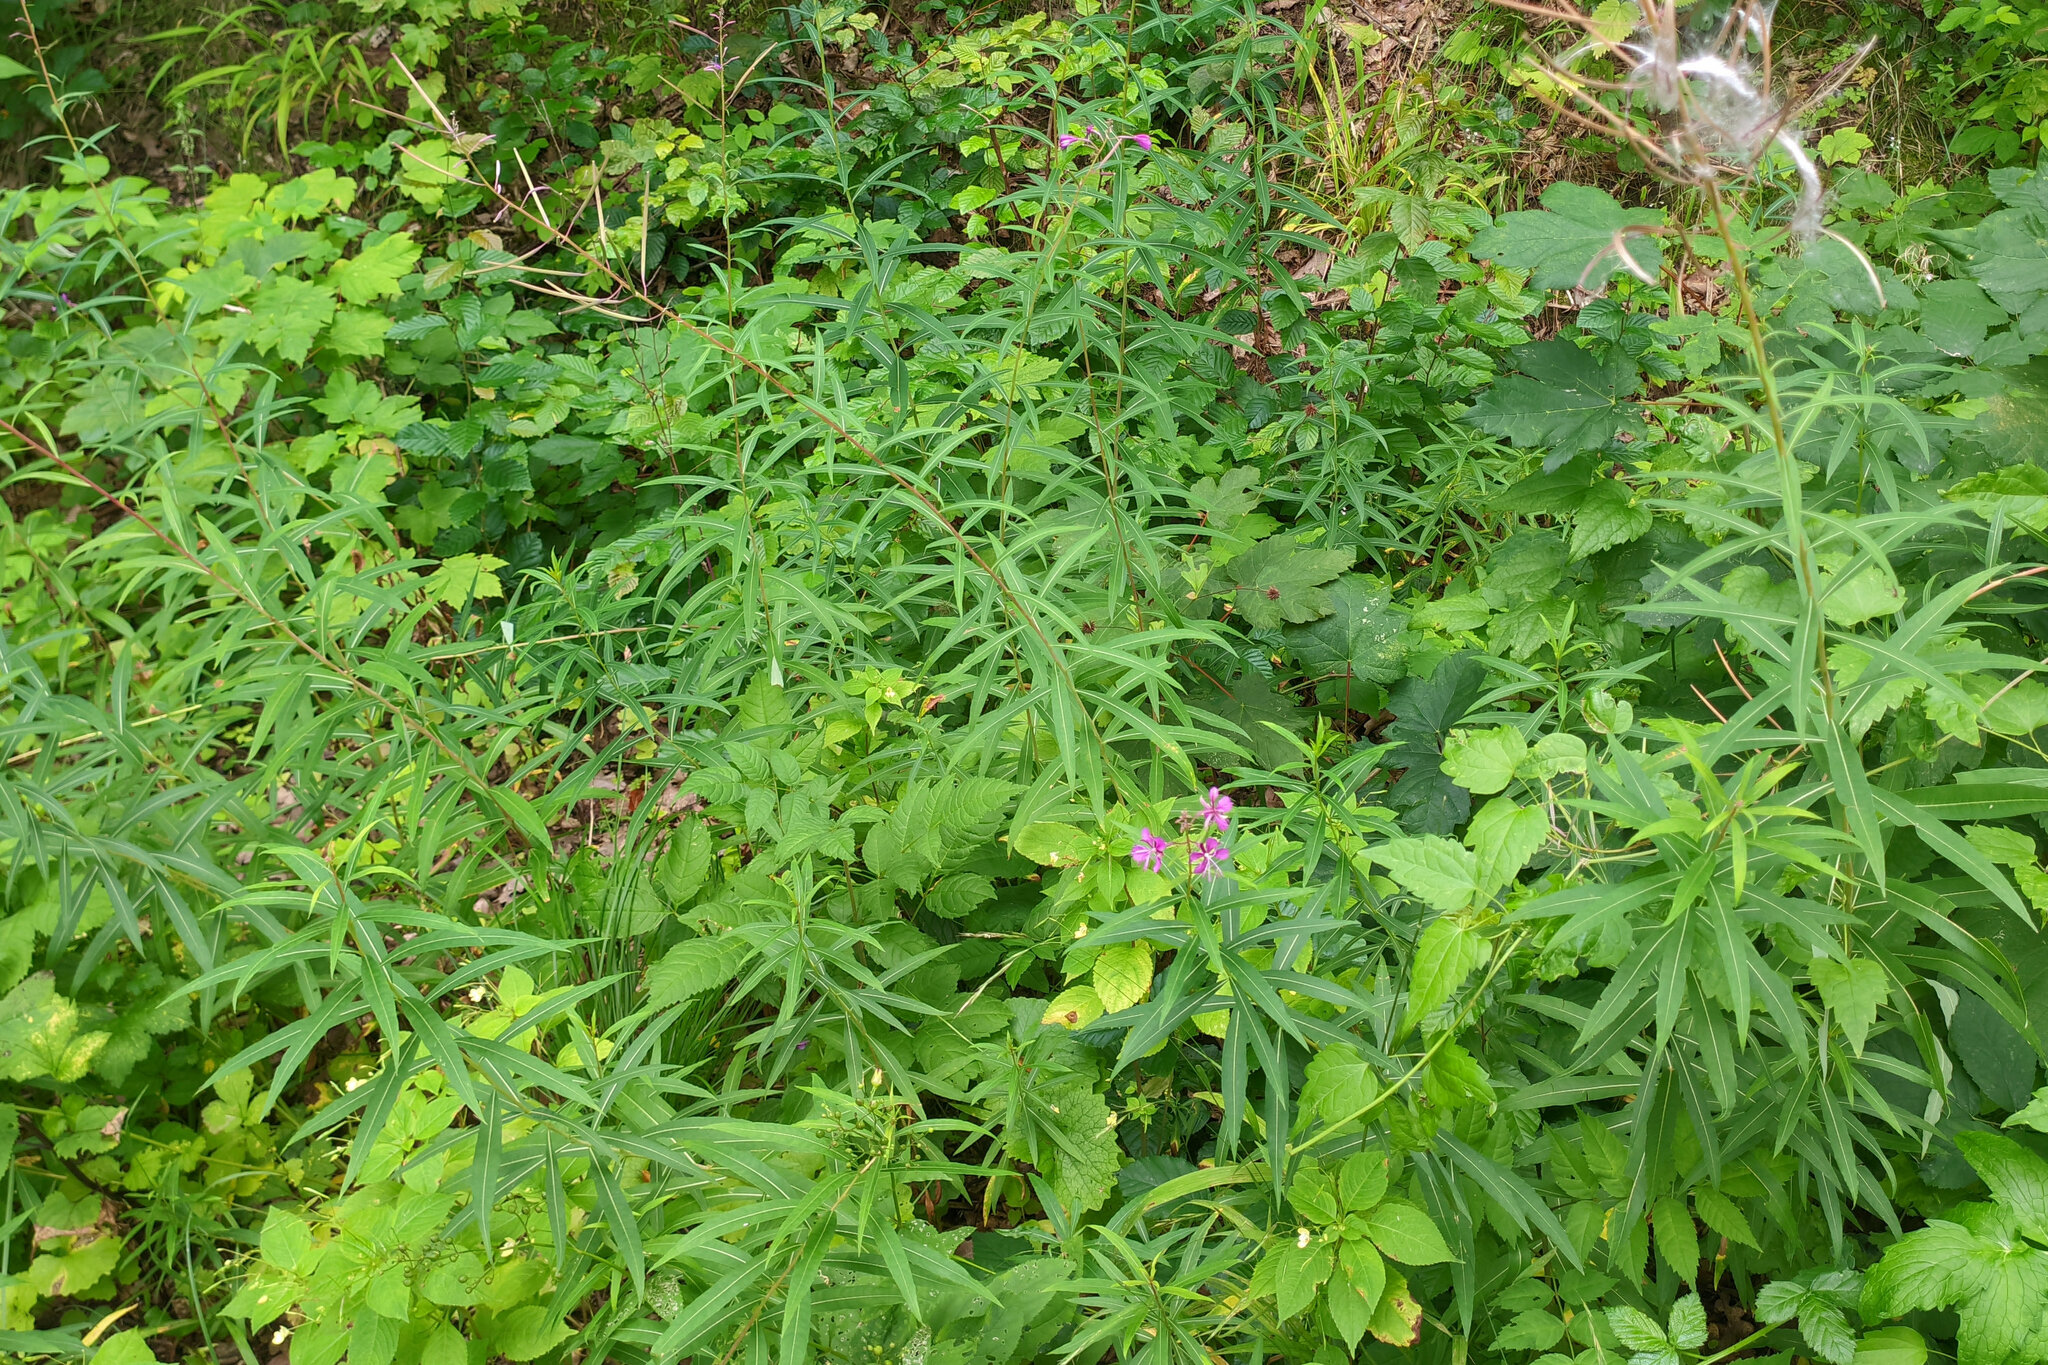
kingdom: Plantae
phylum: Tracheophyta
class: Magnoliopsida
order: Myrtales
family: Onagraceae
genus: Chamaenerion
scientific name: Chamaenerion angustifolium
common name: Fireweed
